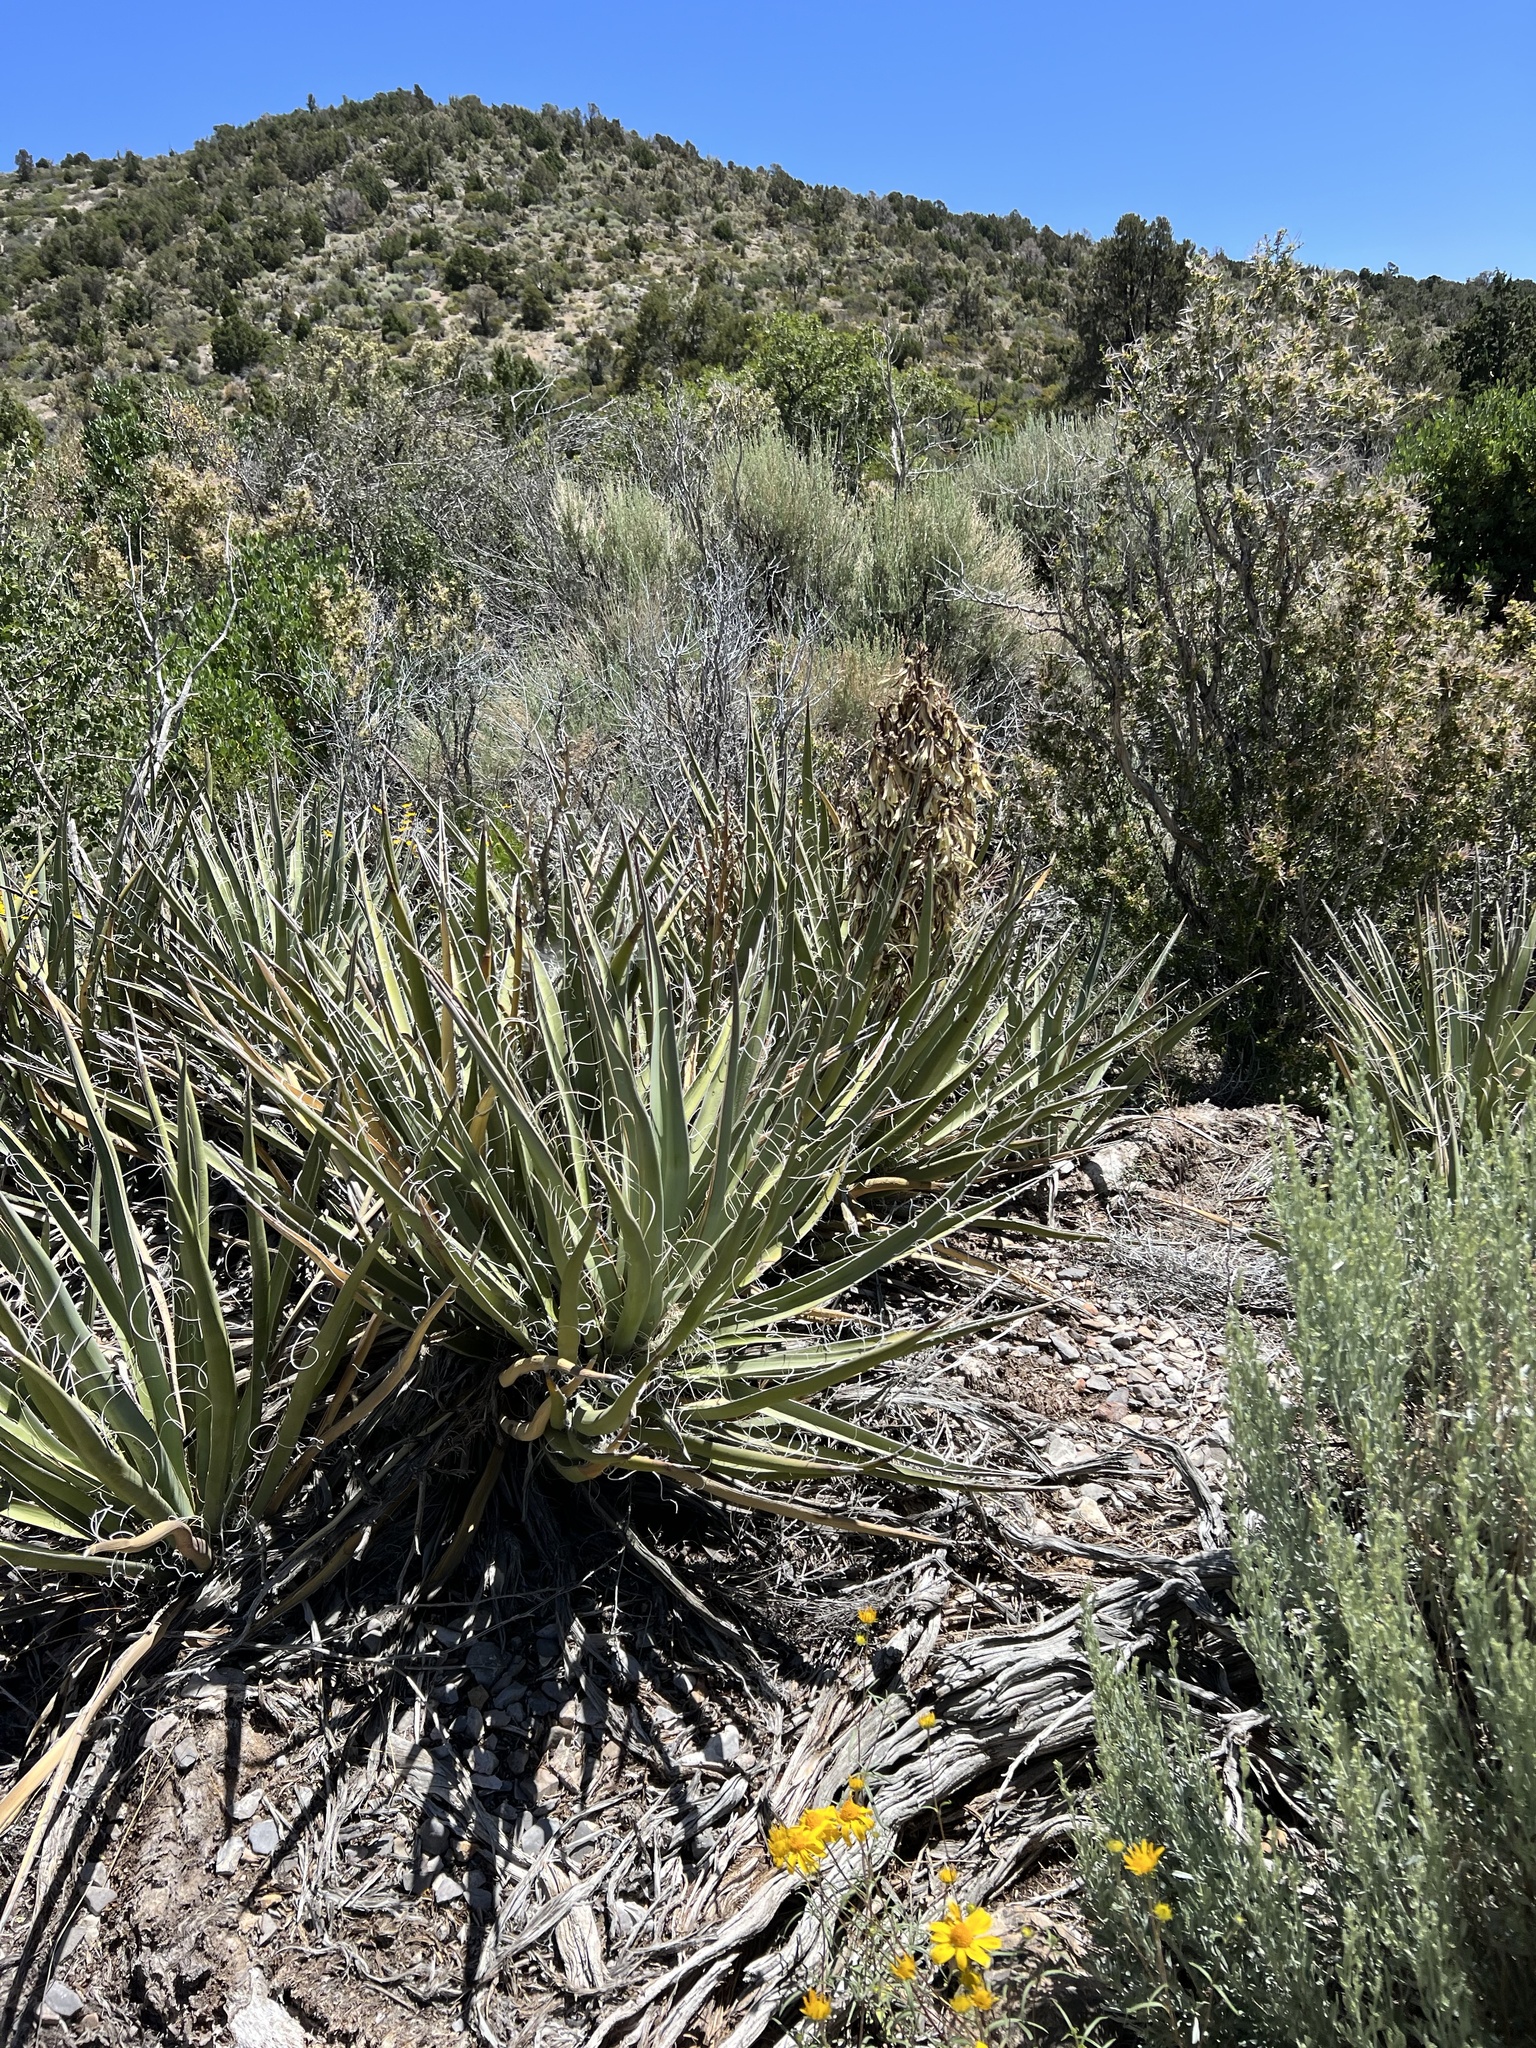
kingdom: Plantae
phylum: Tracheophyta
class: Liliopsida
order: Asparagales
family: Asparagaceae
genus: Yucca
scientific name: Yucca baccata
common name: Banana yucca
